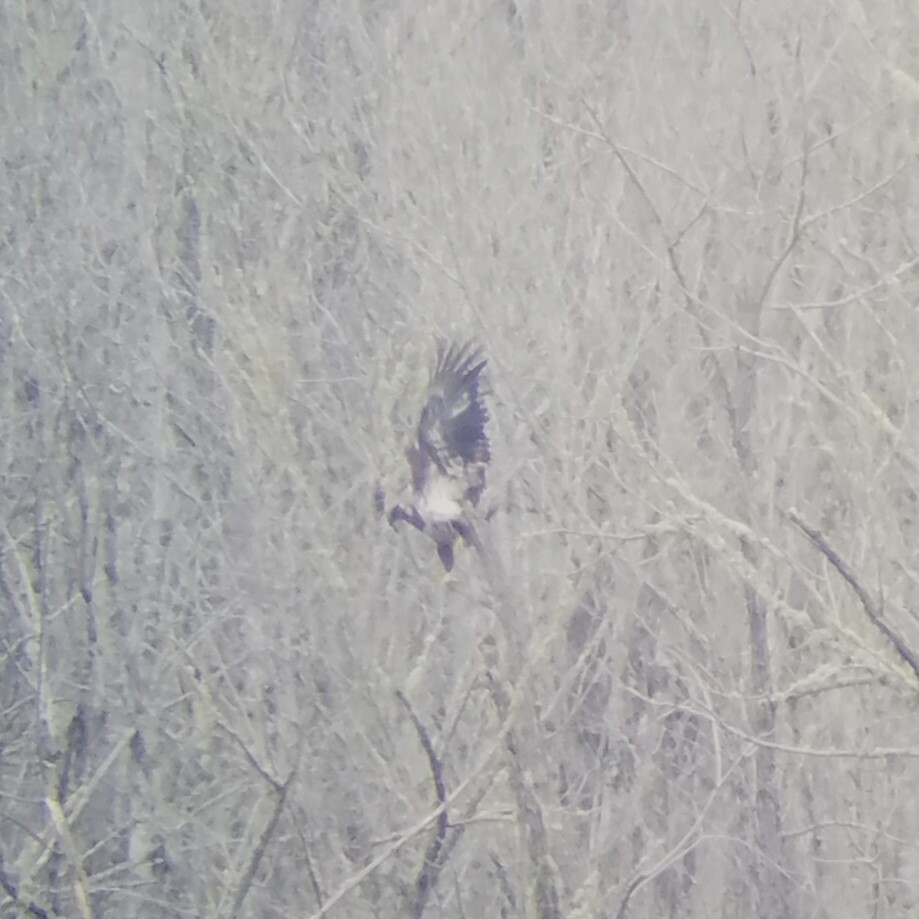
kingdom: Animalia
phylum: Chordata
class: Aves
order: Accipitriformes
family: Accipitridae
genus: Haliaeetus
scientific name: Haliaeetus leucocephalus
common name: Bald eagle
